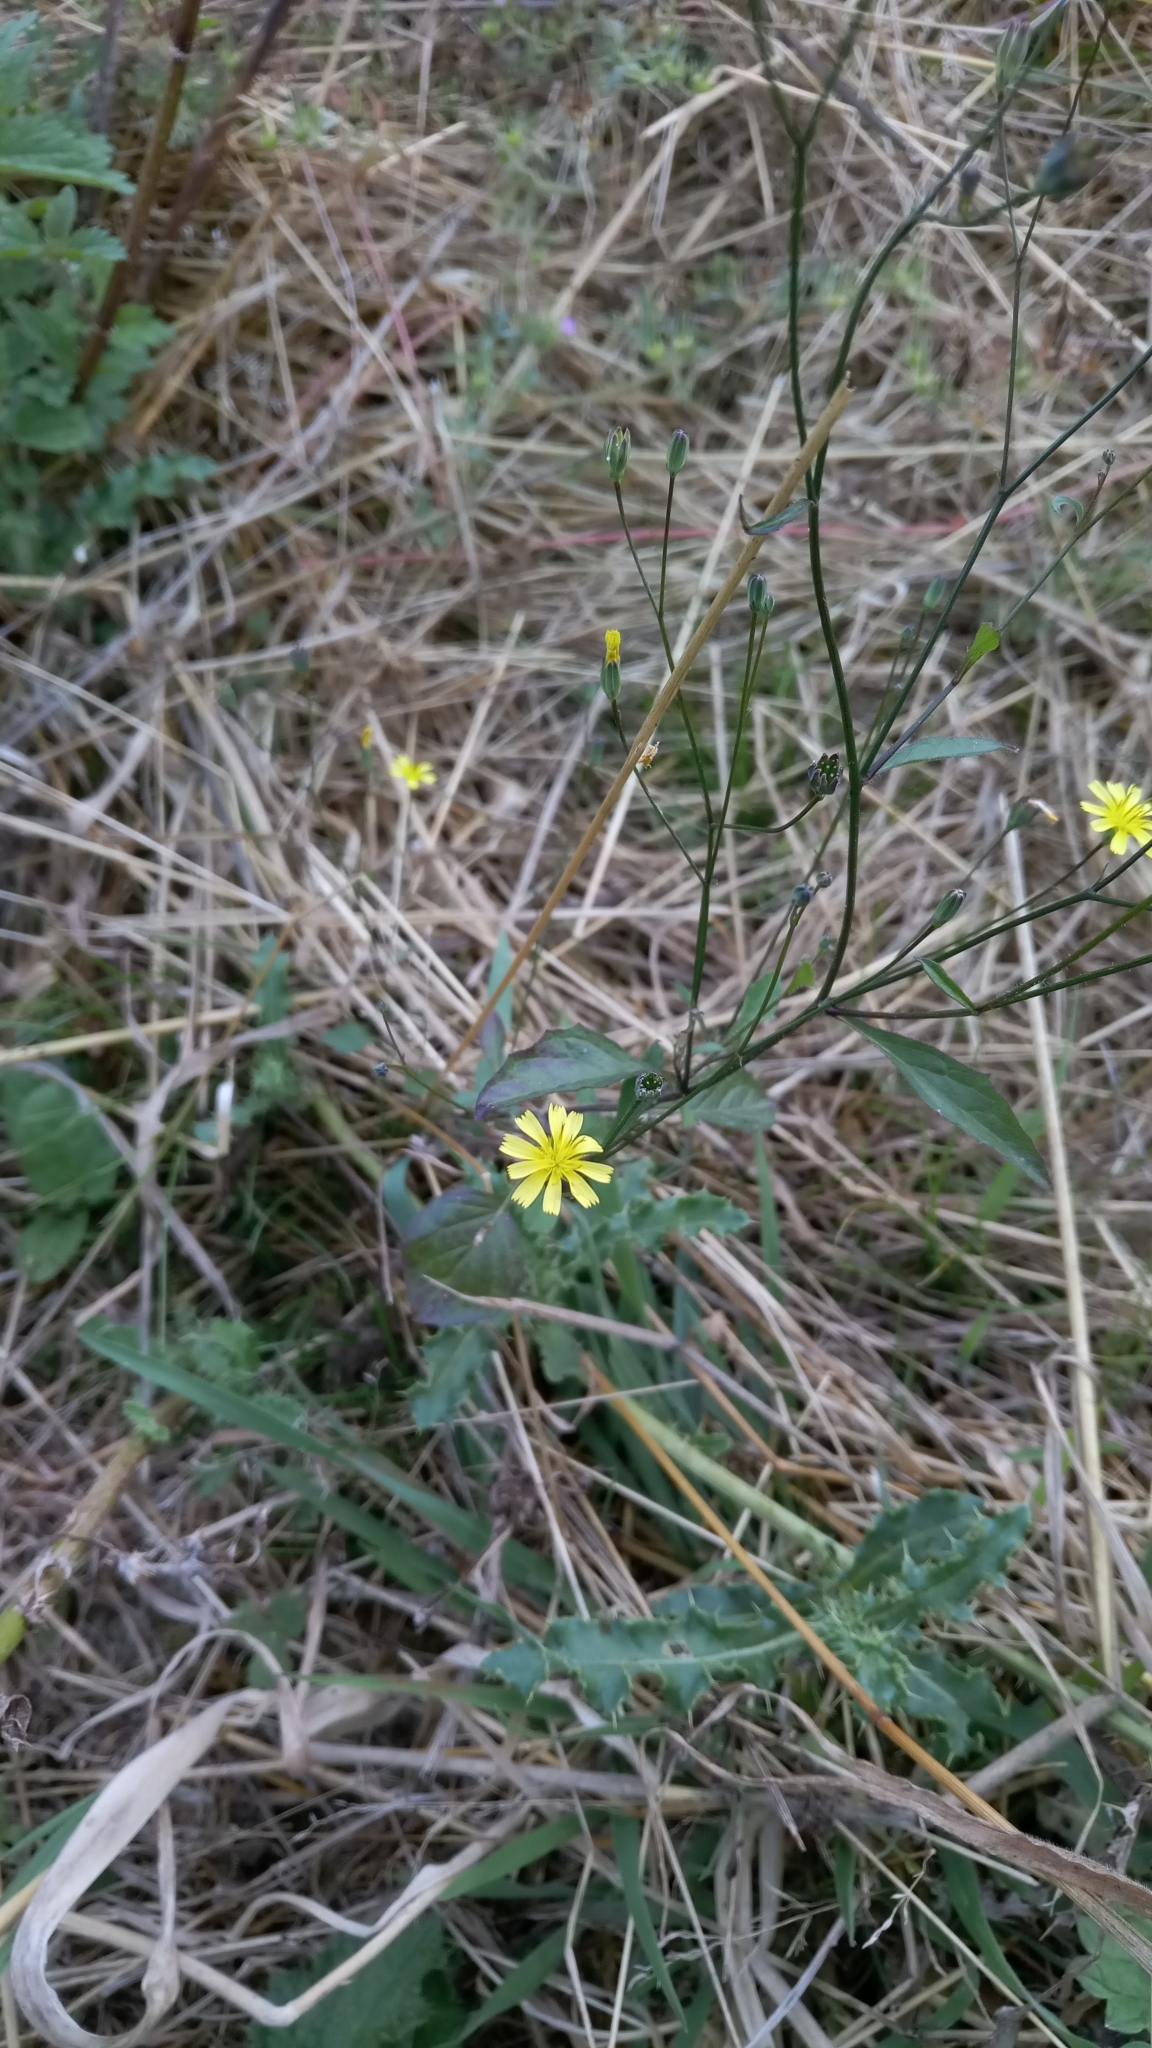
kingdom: Plantae
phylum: Tracheophyta
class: Magnoliopsida
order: Asterales
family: Asteraceae
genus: Lapsana
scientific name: Lapsana communis
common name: Nipplewort
